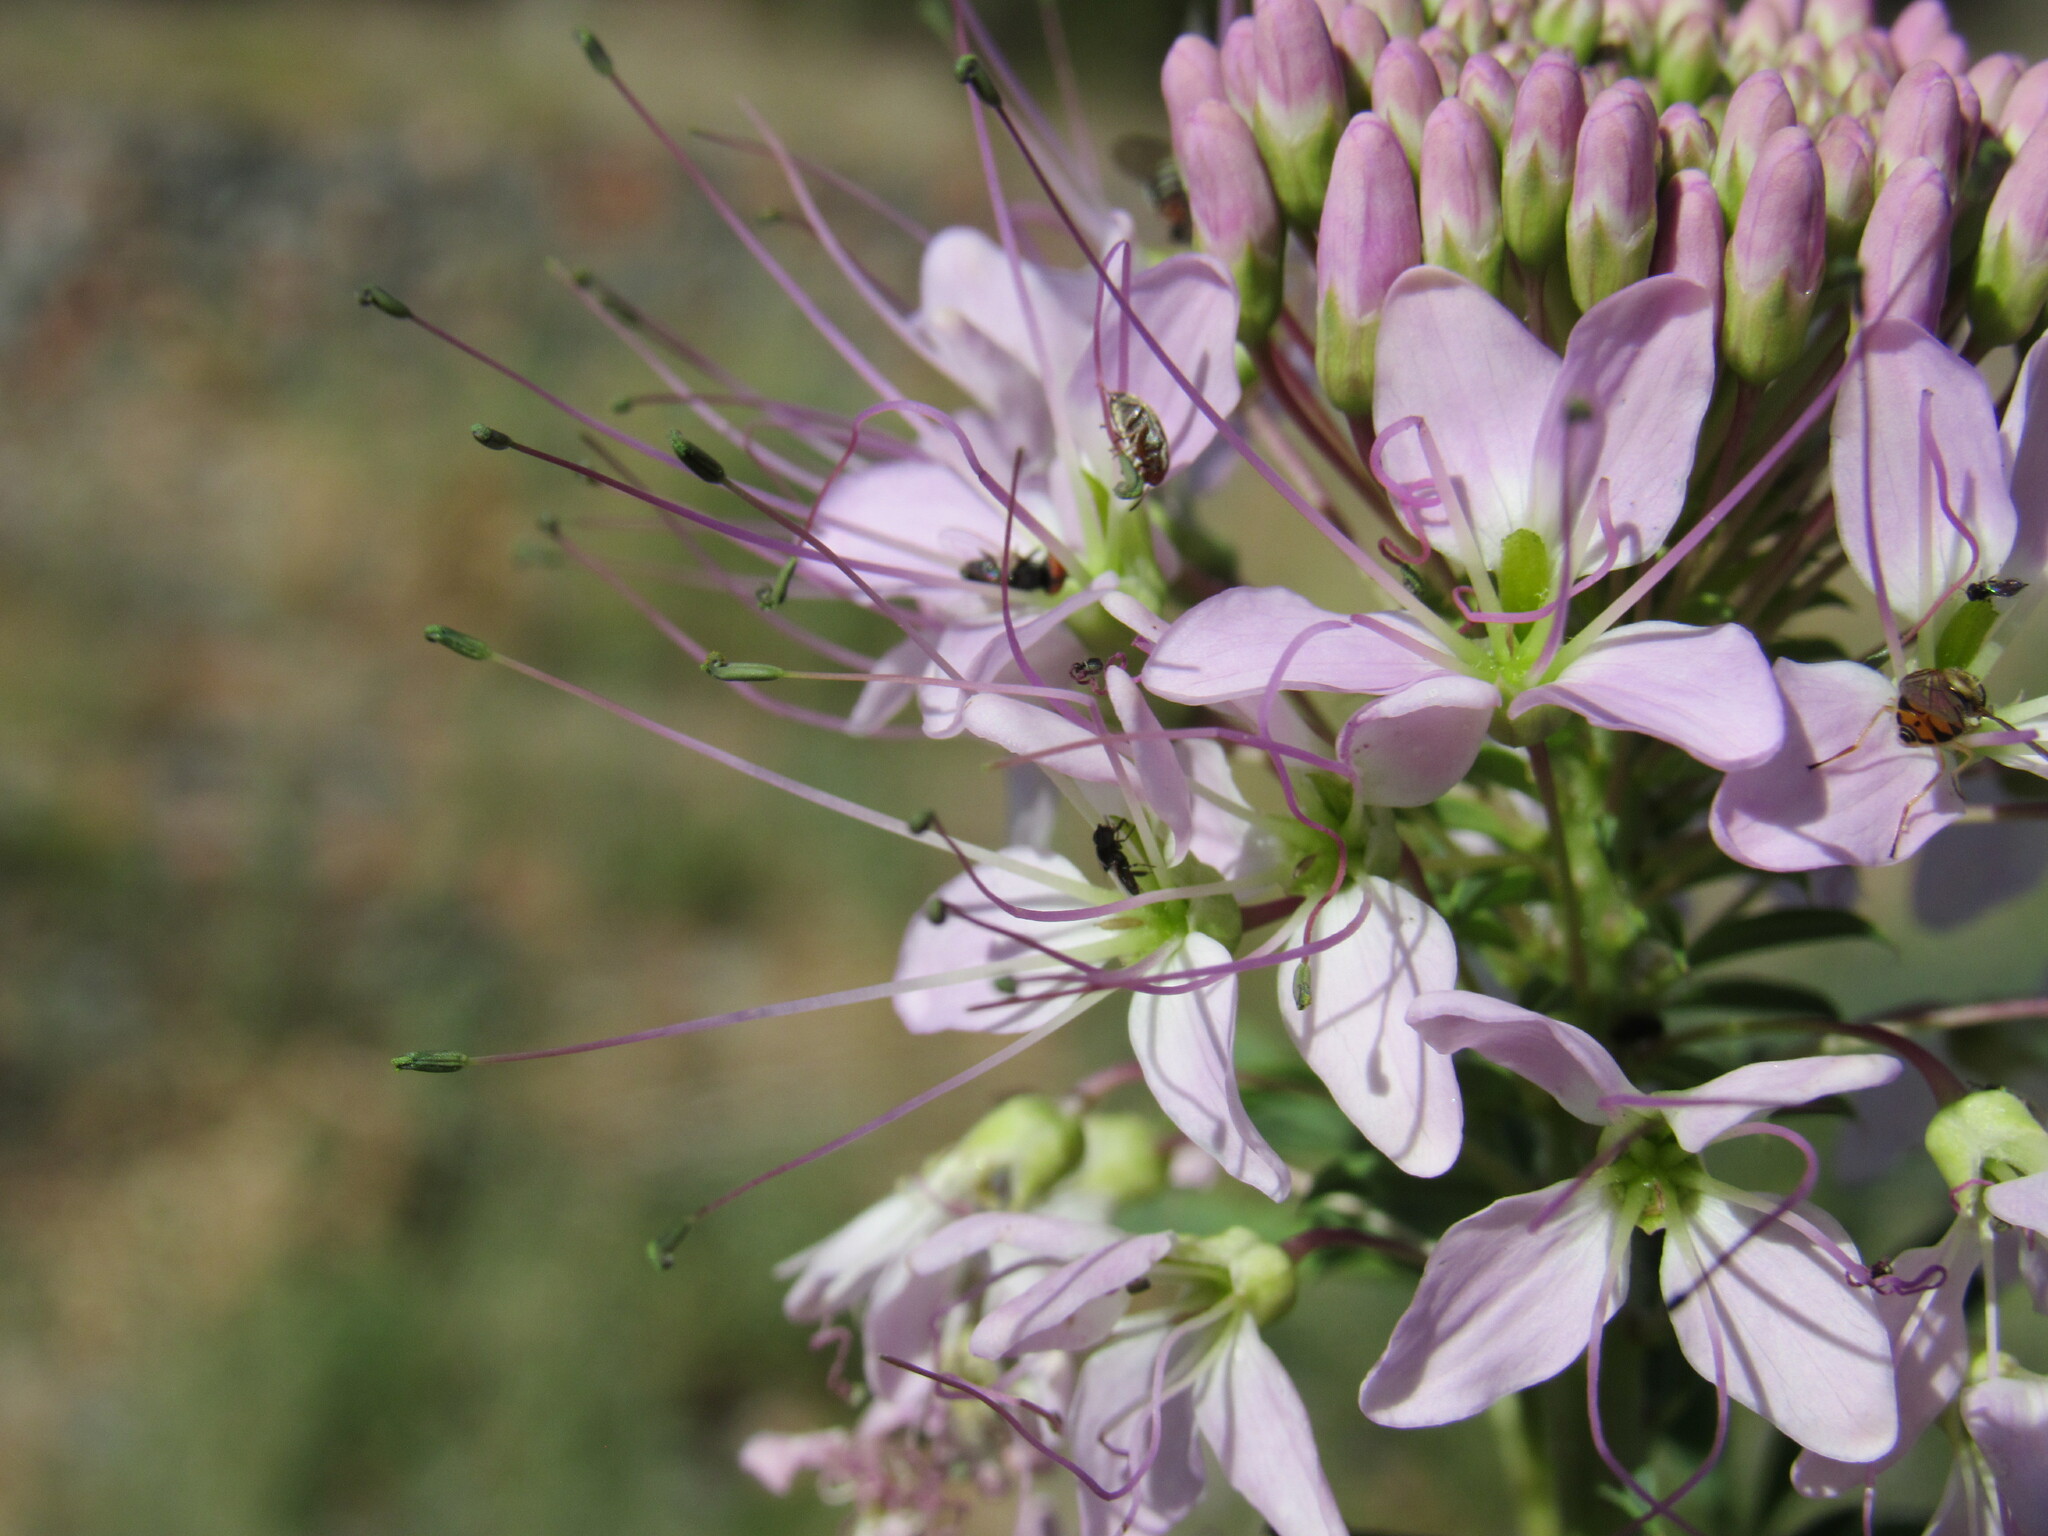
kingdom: Animalia
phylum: Arthropoda
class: Insecta
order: Diptera
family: Syrphidae
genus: Toxomerus
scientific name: Toxomerus marginatus
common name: Syrphid fly
